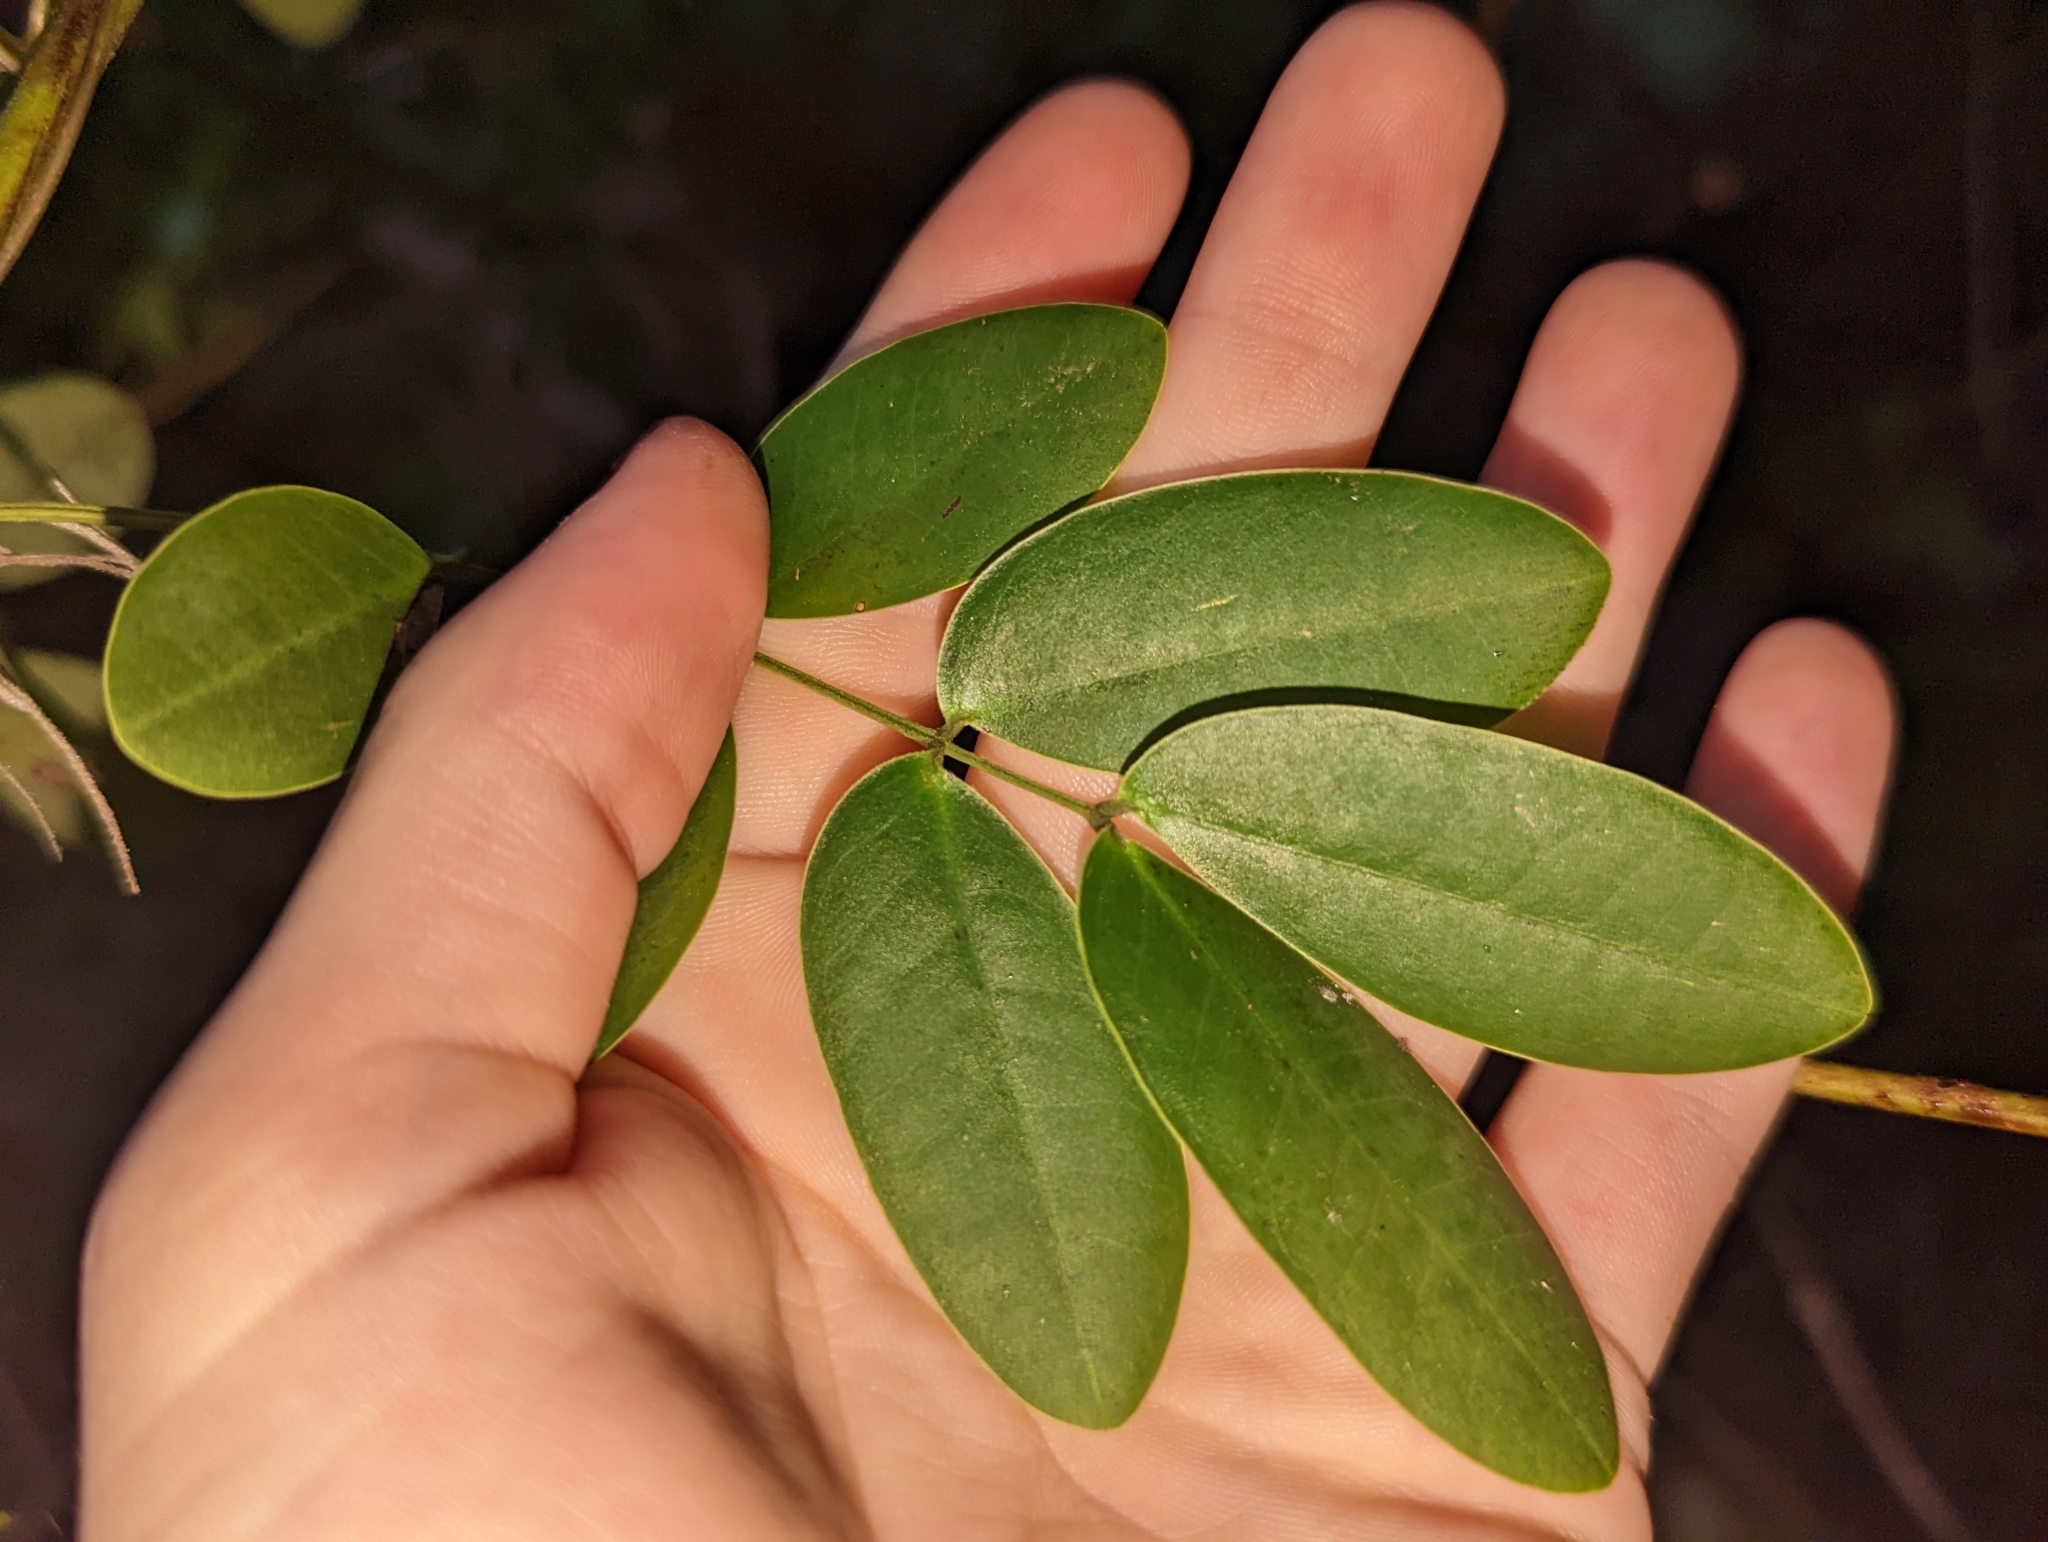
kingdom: Plantae
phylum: Tracheophyta
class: Magnoliopsida
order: Fabales
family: Fabaceae
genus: Senna
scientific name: Senna pendula
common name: Easter cassia
